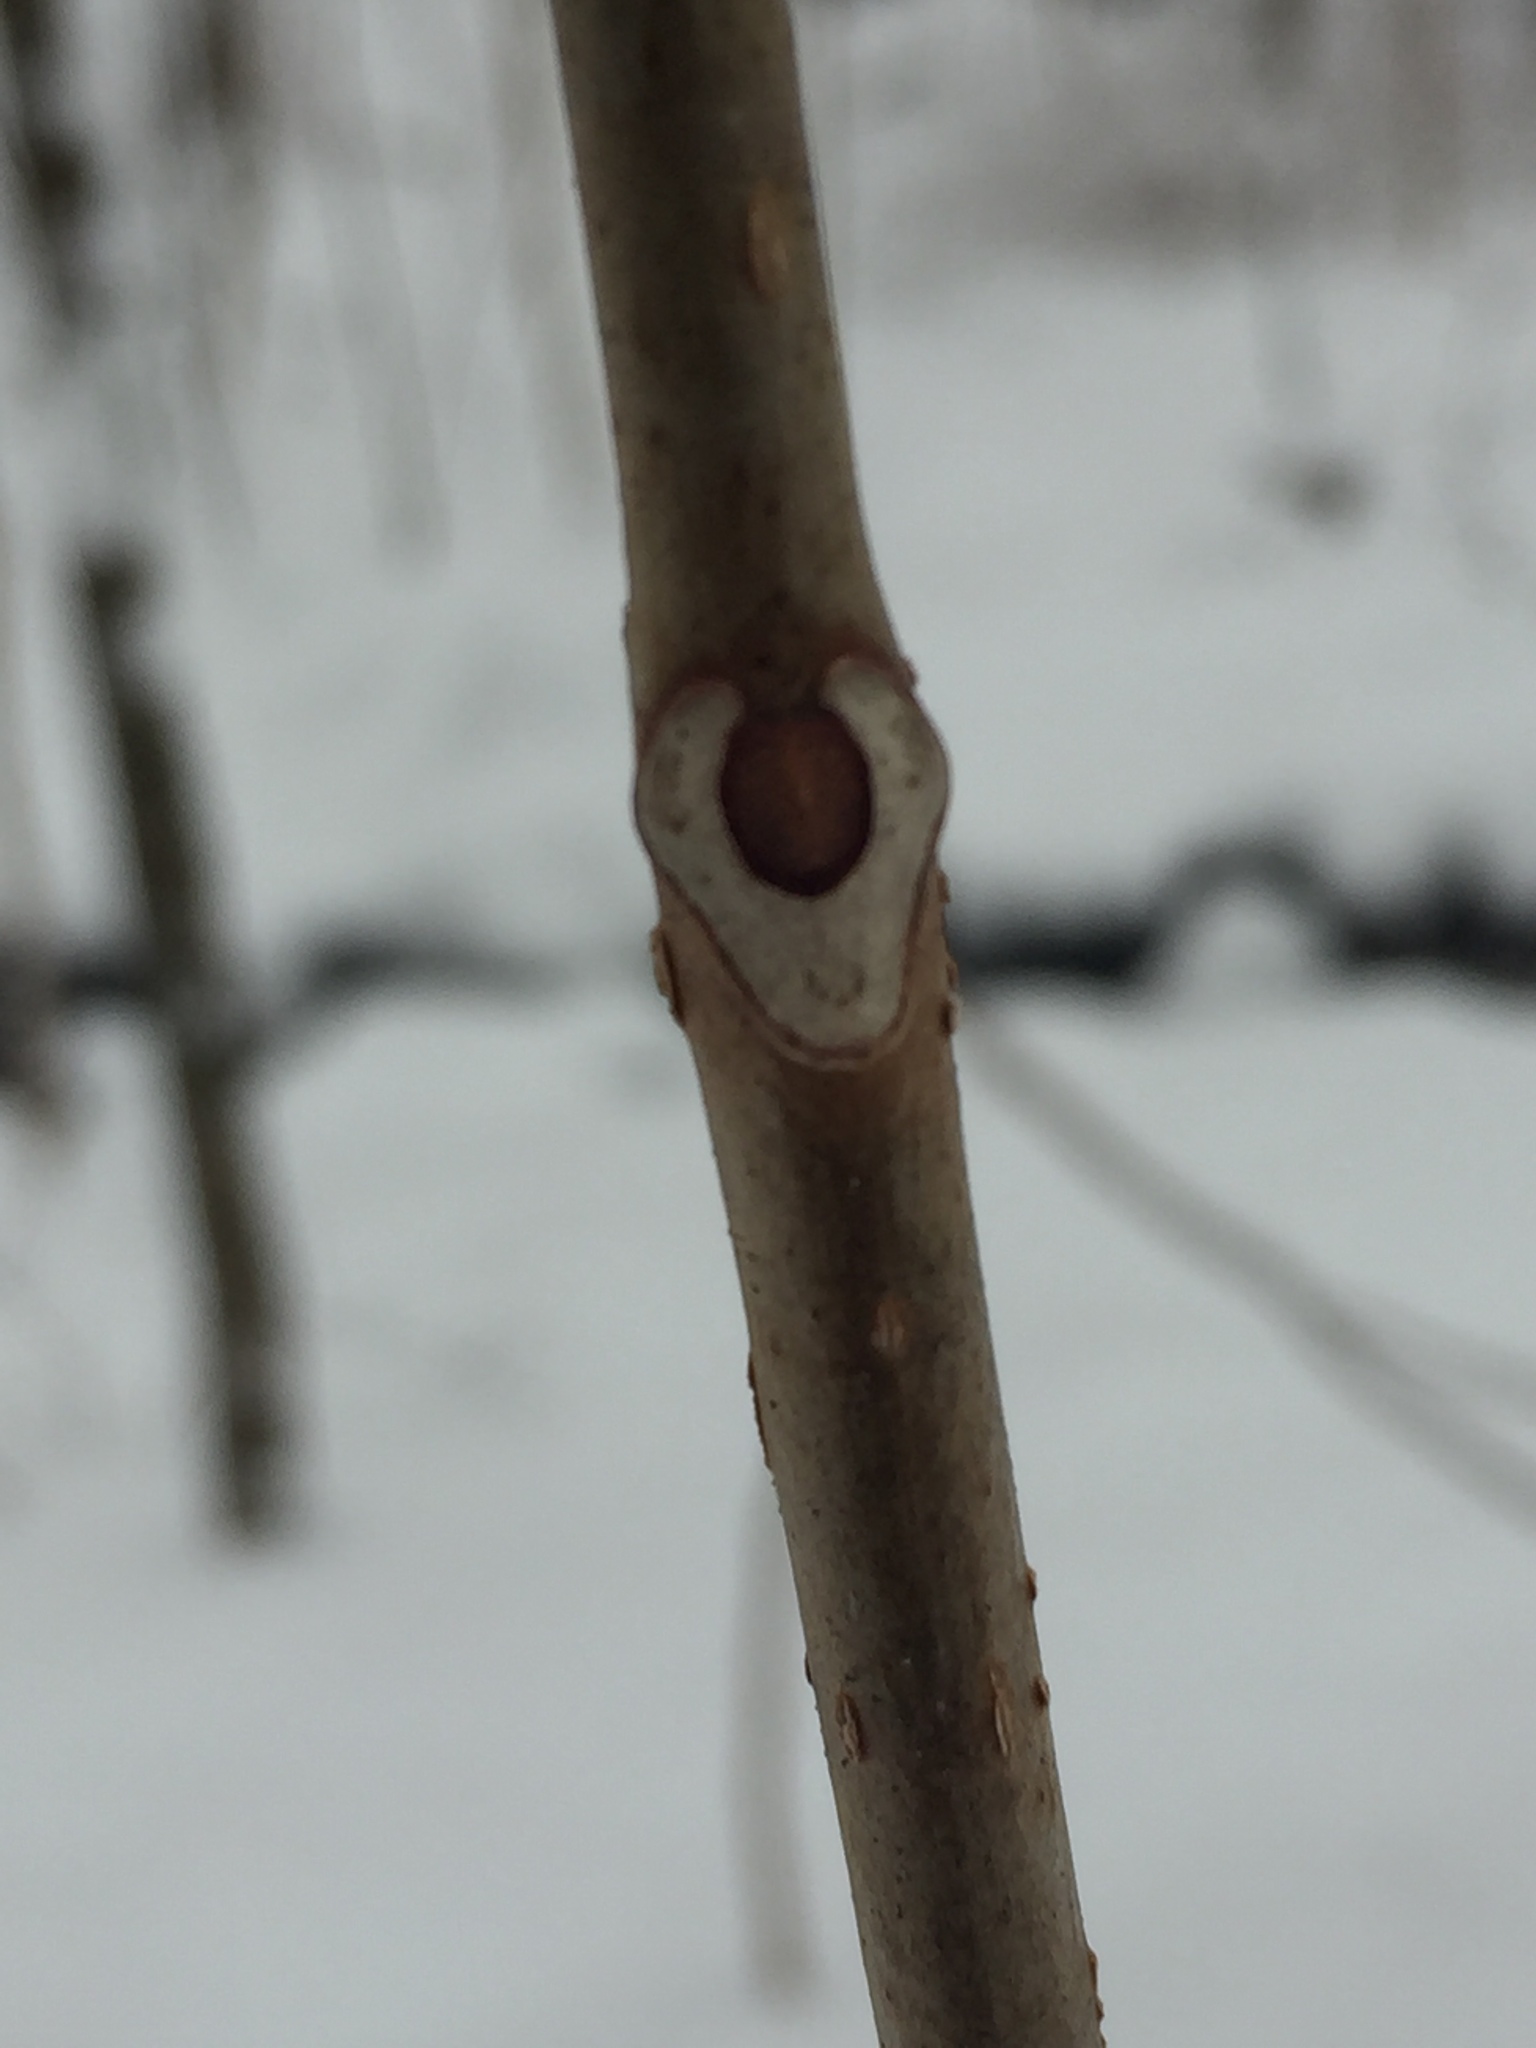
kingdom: Plantae
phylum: Tracheophyta
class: Magnoliopsida
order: Sapindales
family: Rutaceae
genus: Phellodendron
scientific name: Phellodendron amurense
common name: Amur corktree
